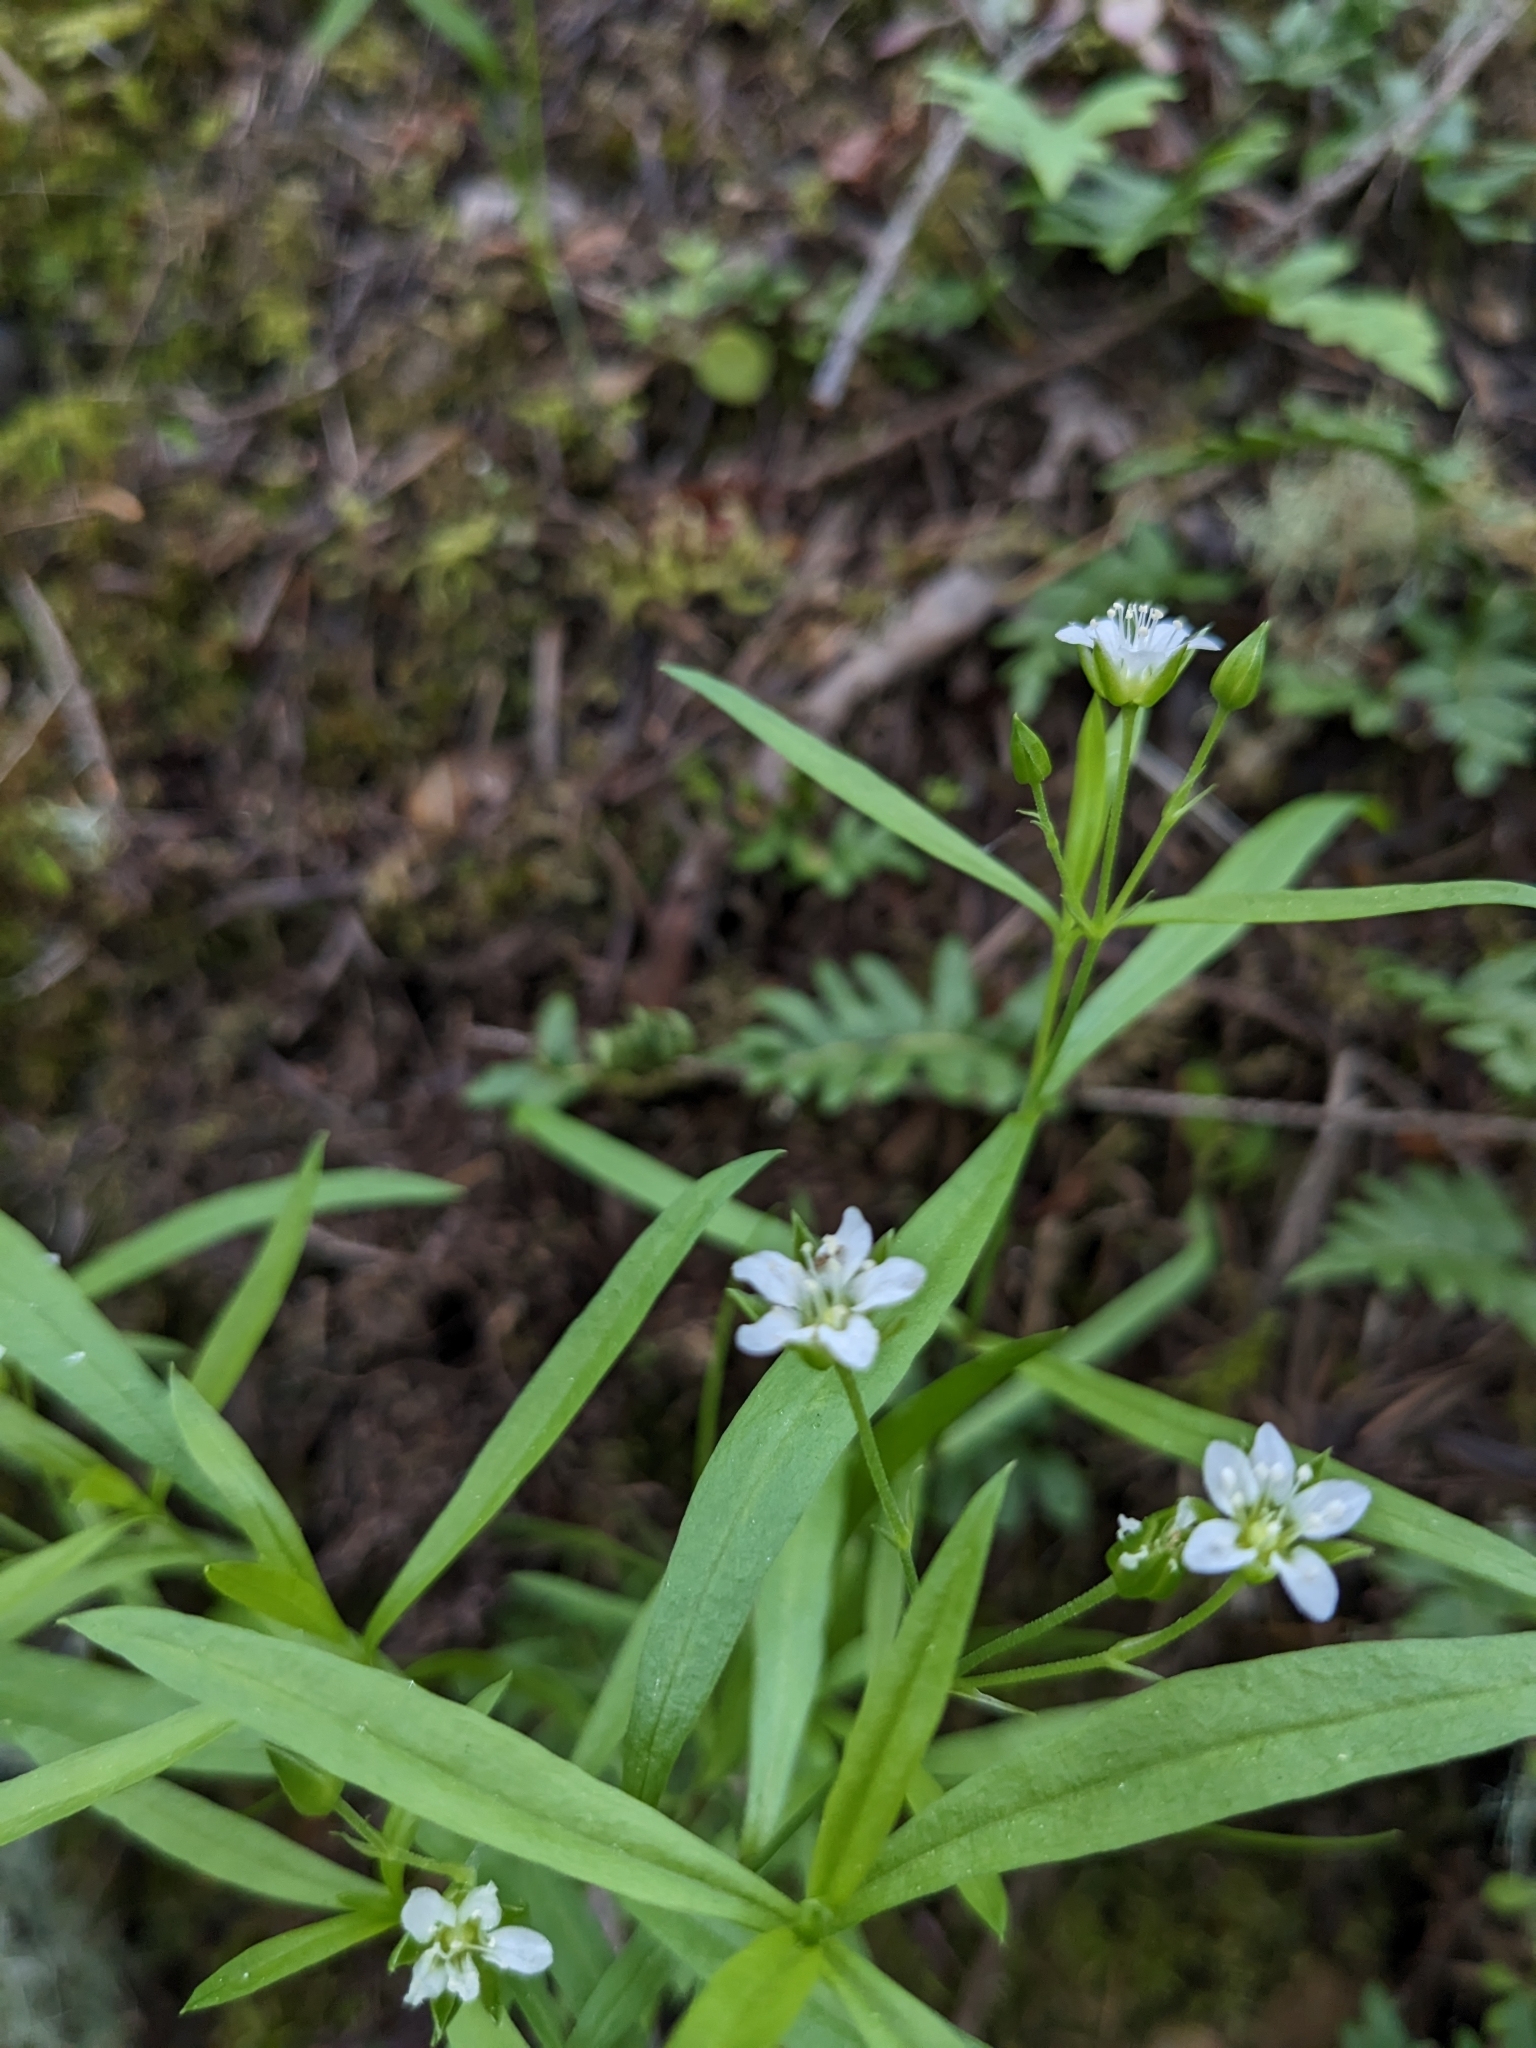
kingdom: Plantae
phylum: Tracheophyta
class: Magnoliopsida
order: Caryophyllales
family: Caryophyllaceae
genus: Moehringia
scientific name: Moehringia macrophylla
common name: Big-leaf sandwort
